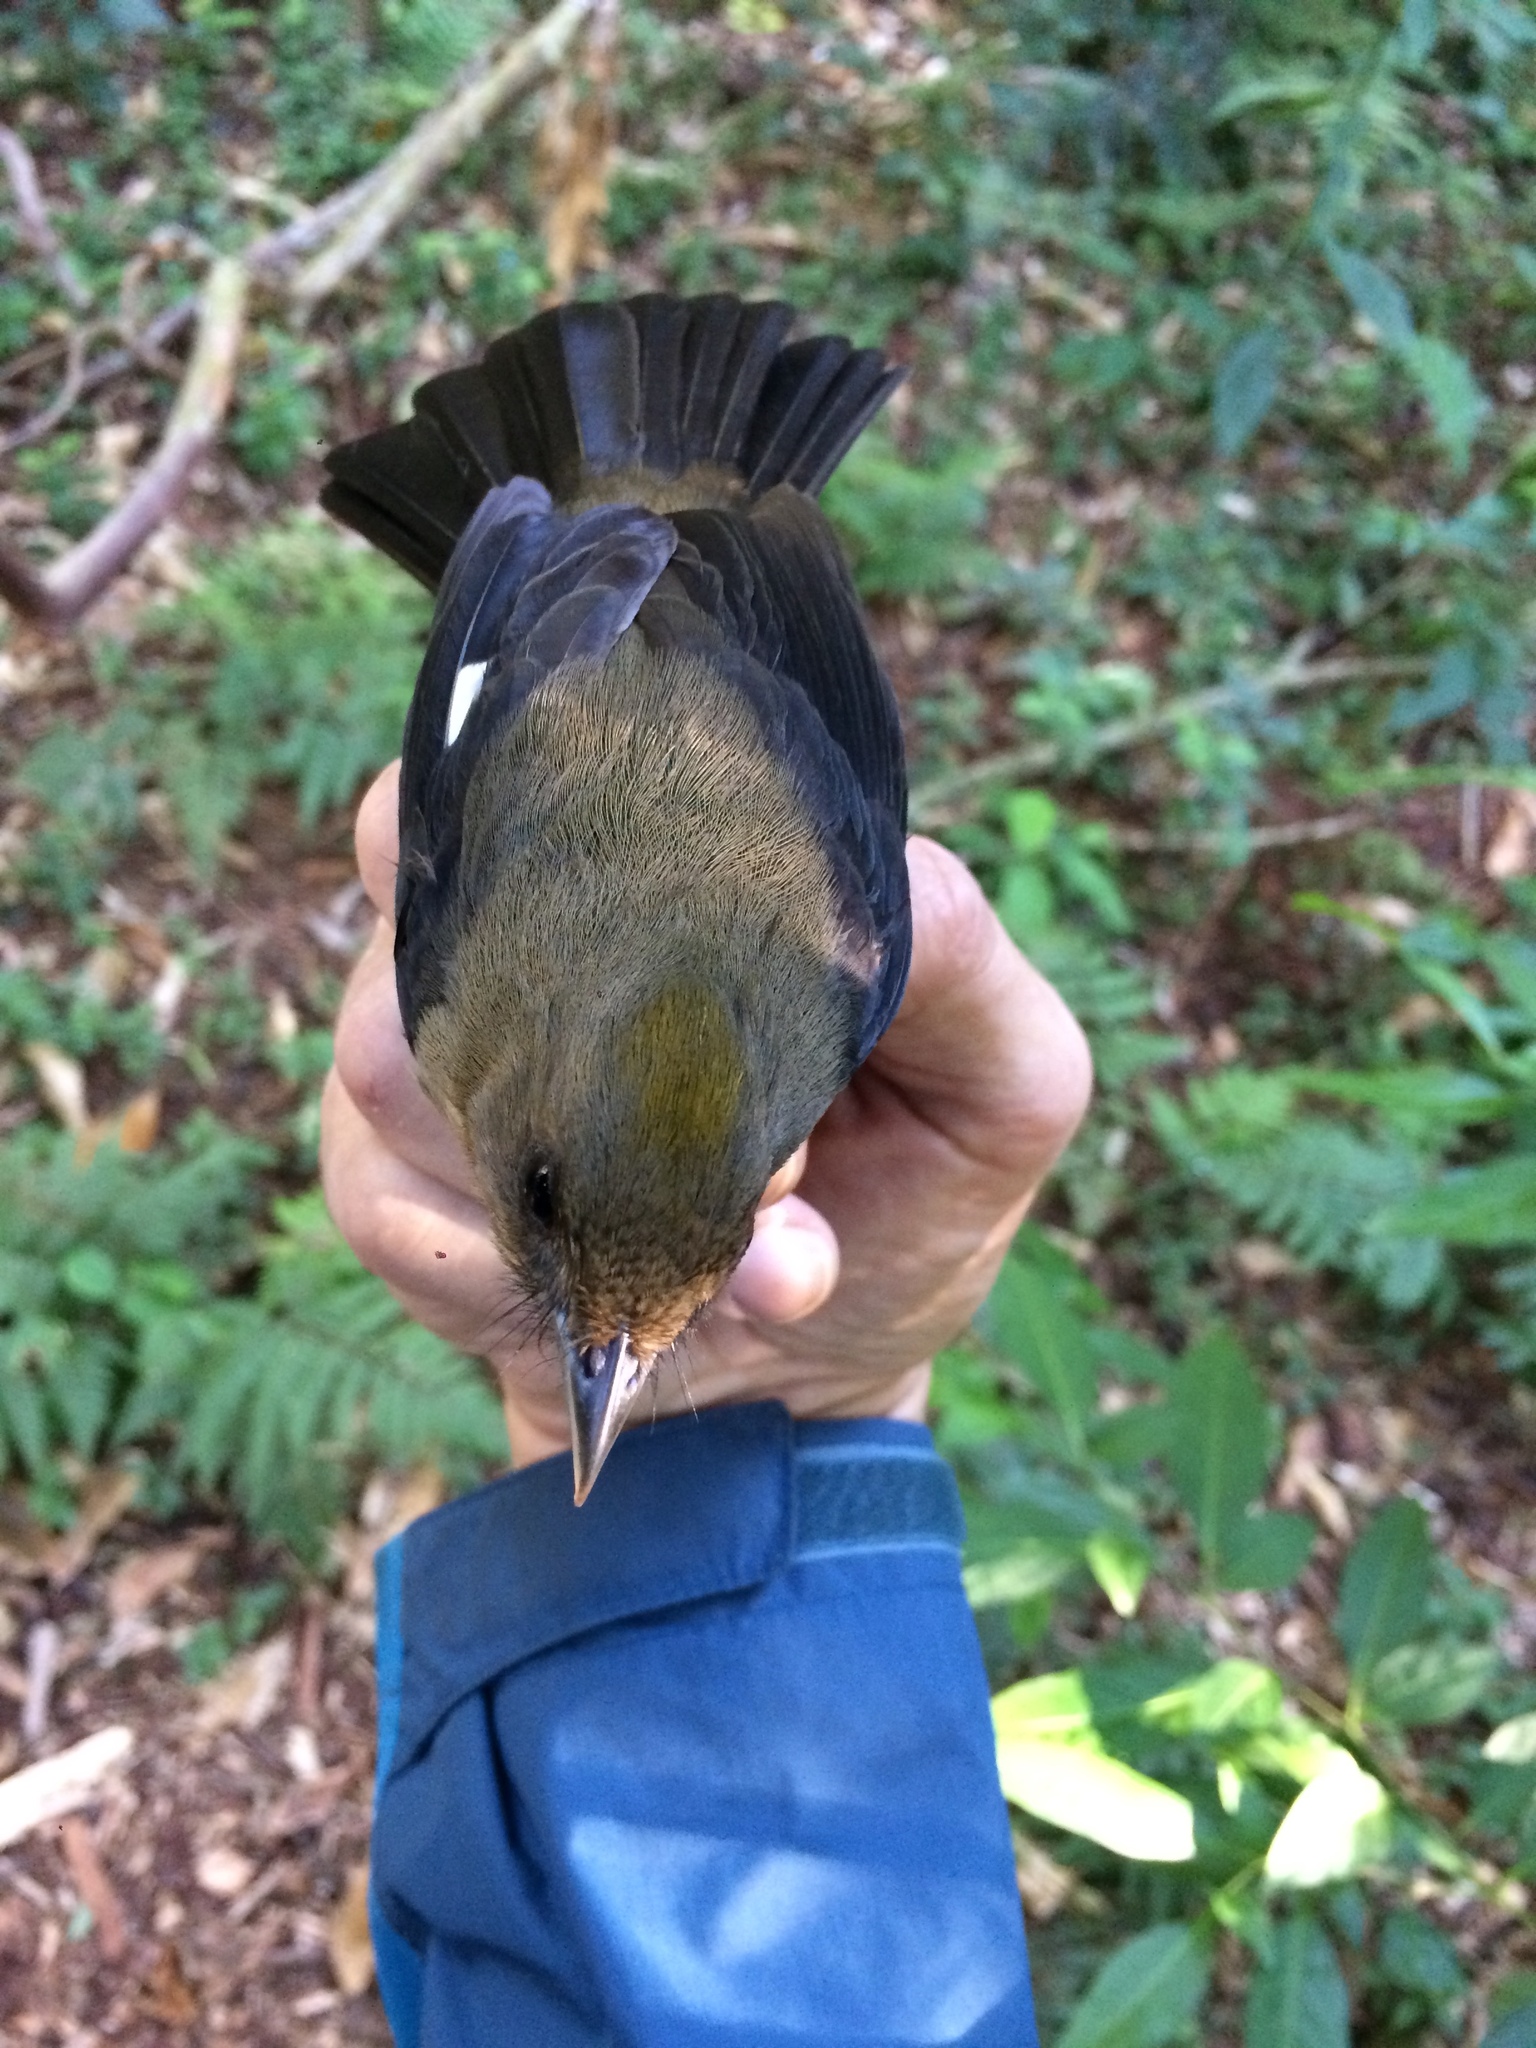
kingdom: Animalia
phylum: Chordata
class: Aves
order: Passeriformes
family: Thraupidae
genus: Trichothraupis
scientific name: Trichothraupis melanops
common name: Black-goggled tanager
